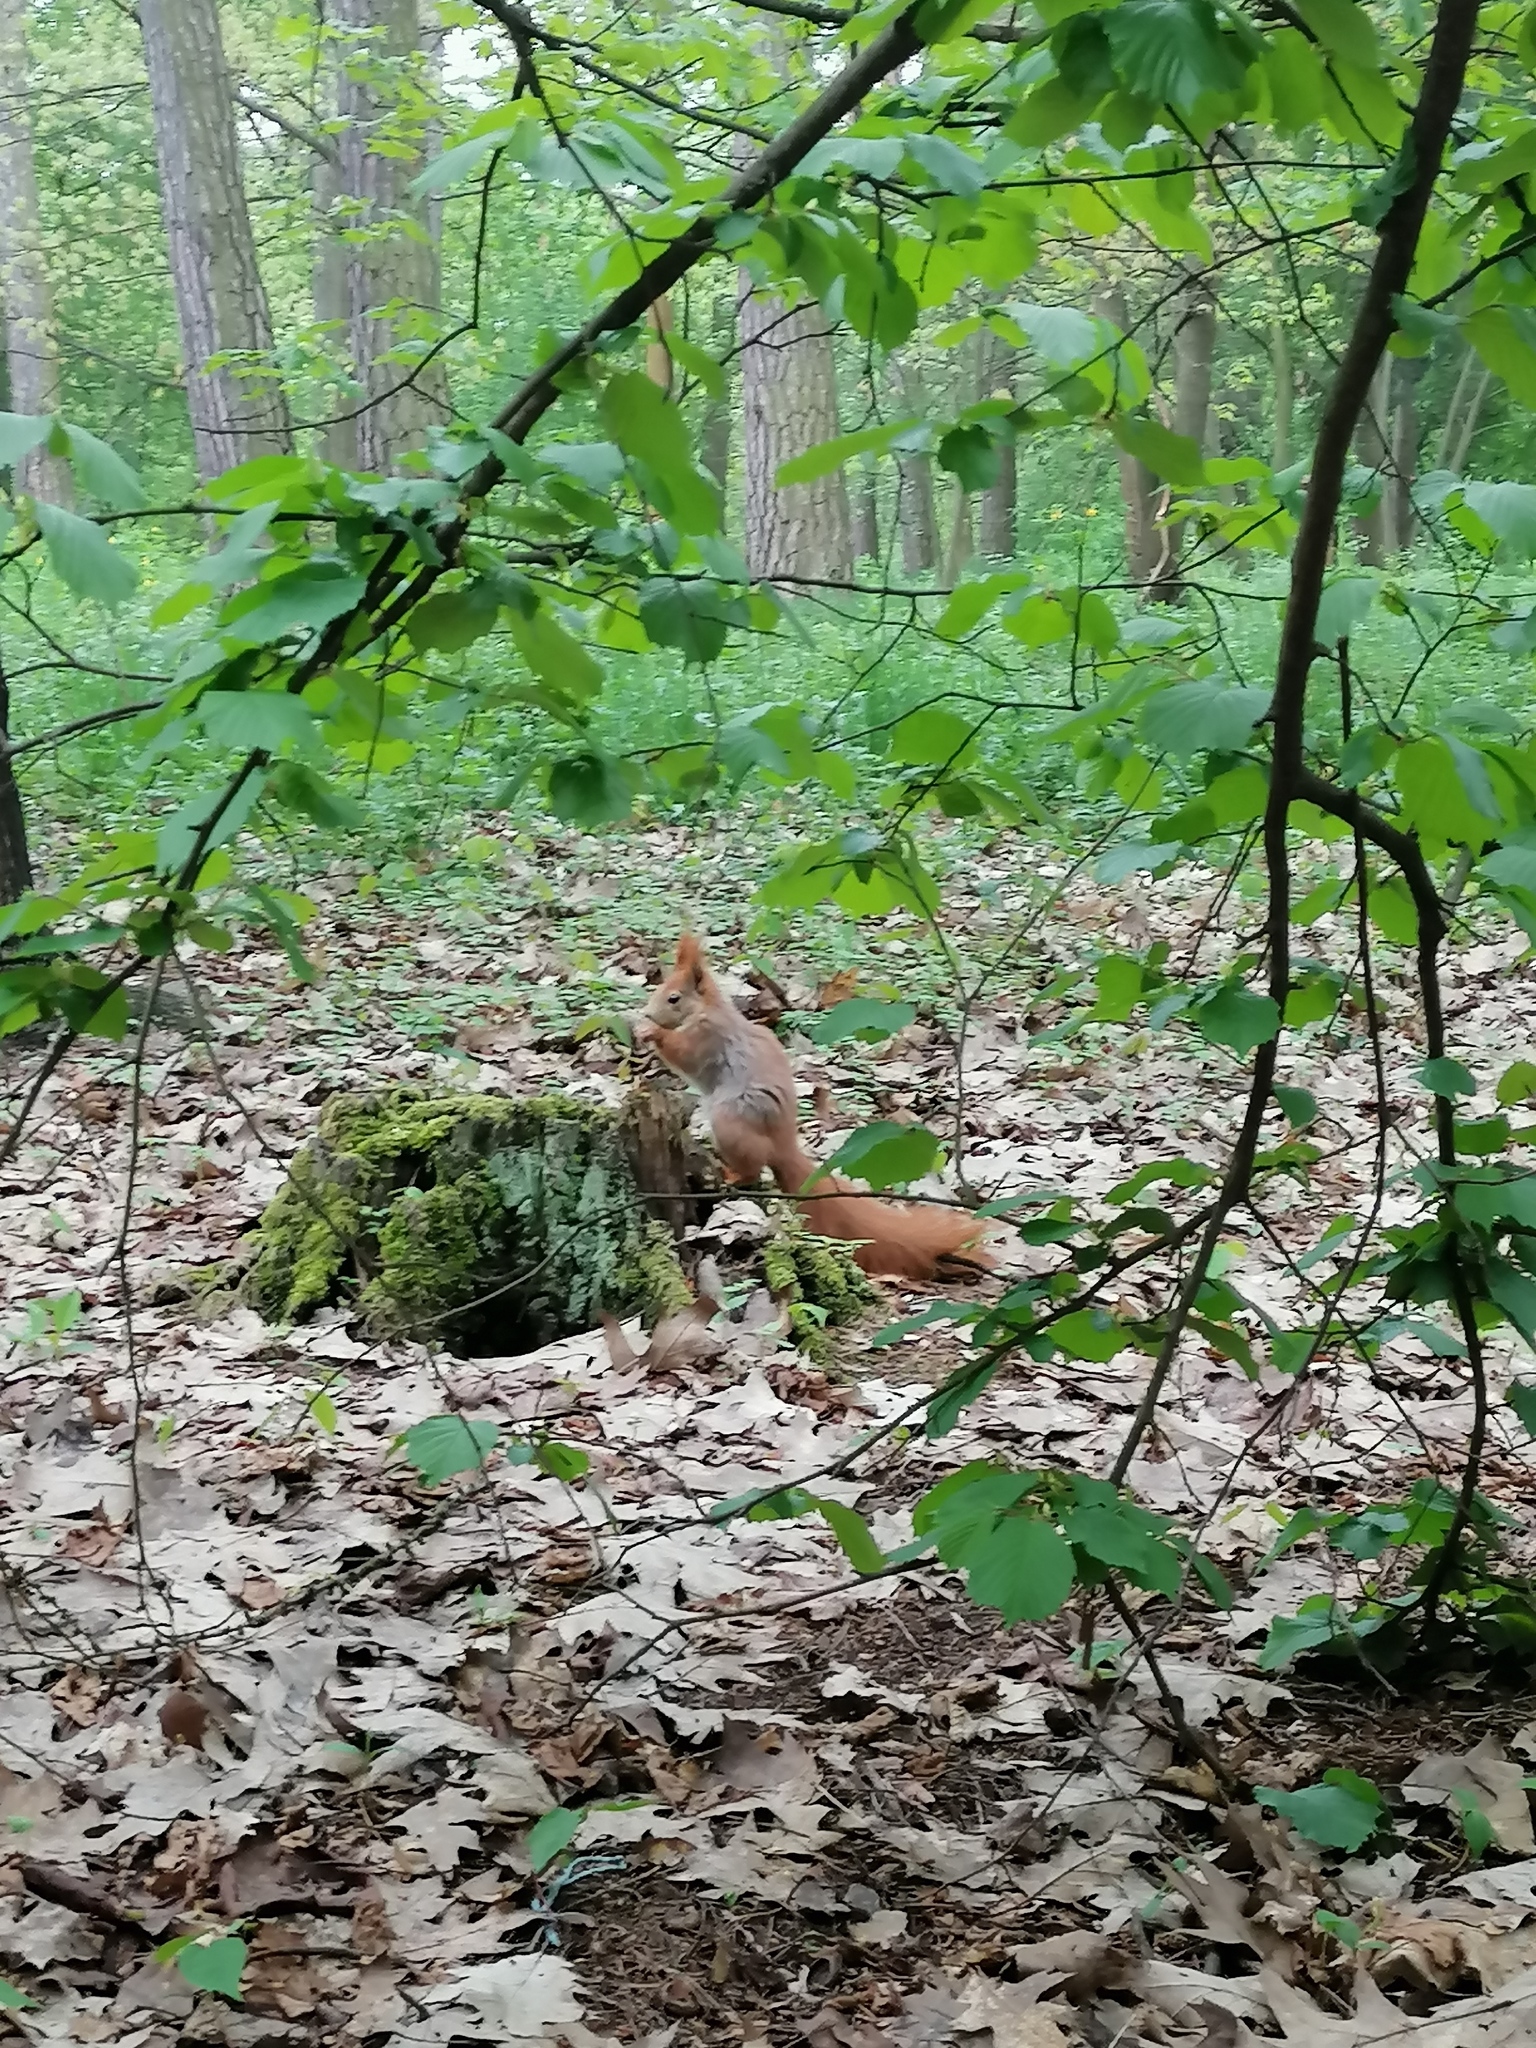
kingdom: Animalia
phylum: Chordata
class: Mammalia
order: Rodentia
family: Sciuridae
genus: Sciurus
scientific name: Sciurus vulgaris
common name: Eurasian red squirrel
